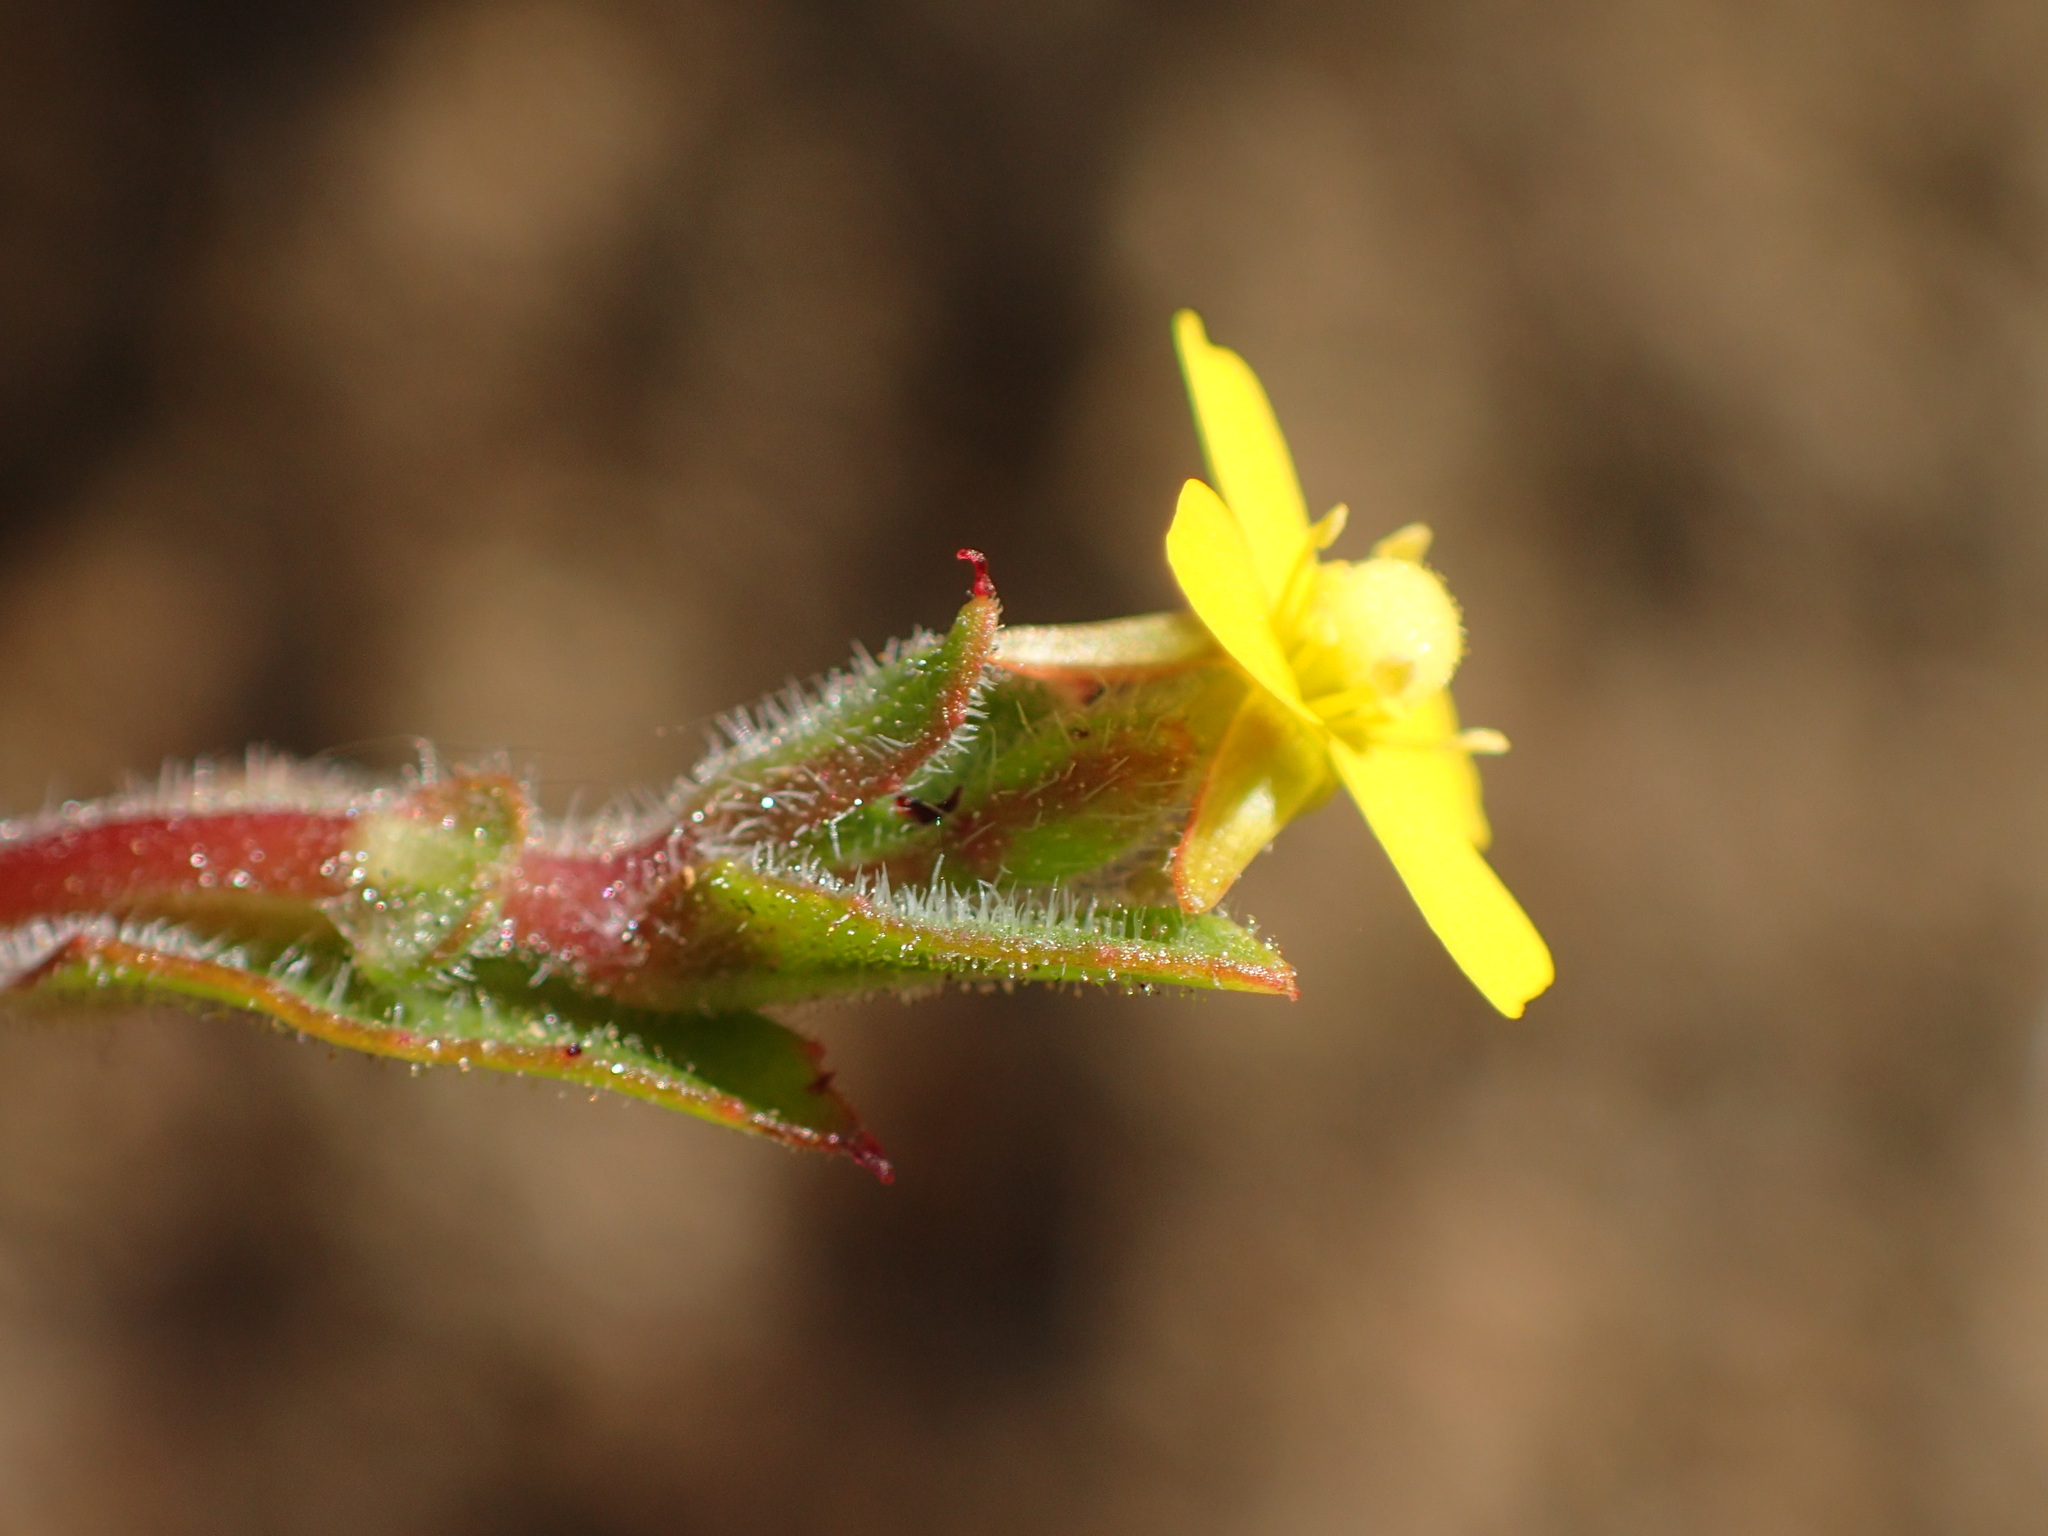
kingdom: Plantae
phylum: Tracheophyta
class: Magnoliopsida
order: Myrtales
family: Onagraceae
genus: Camissonia
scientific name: Camissonia strigulosa
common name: Contorted-primrose
